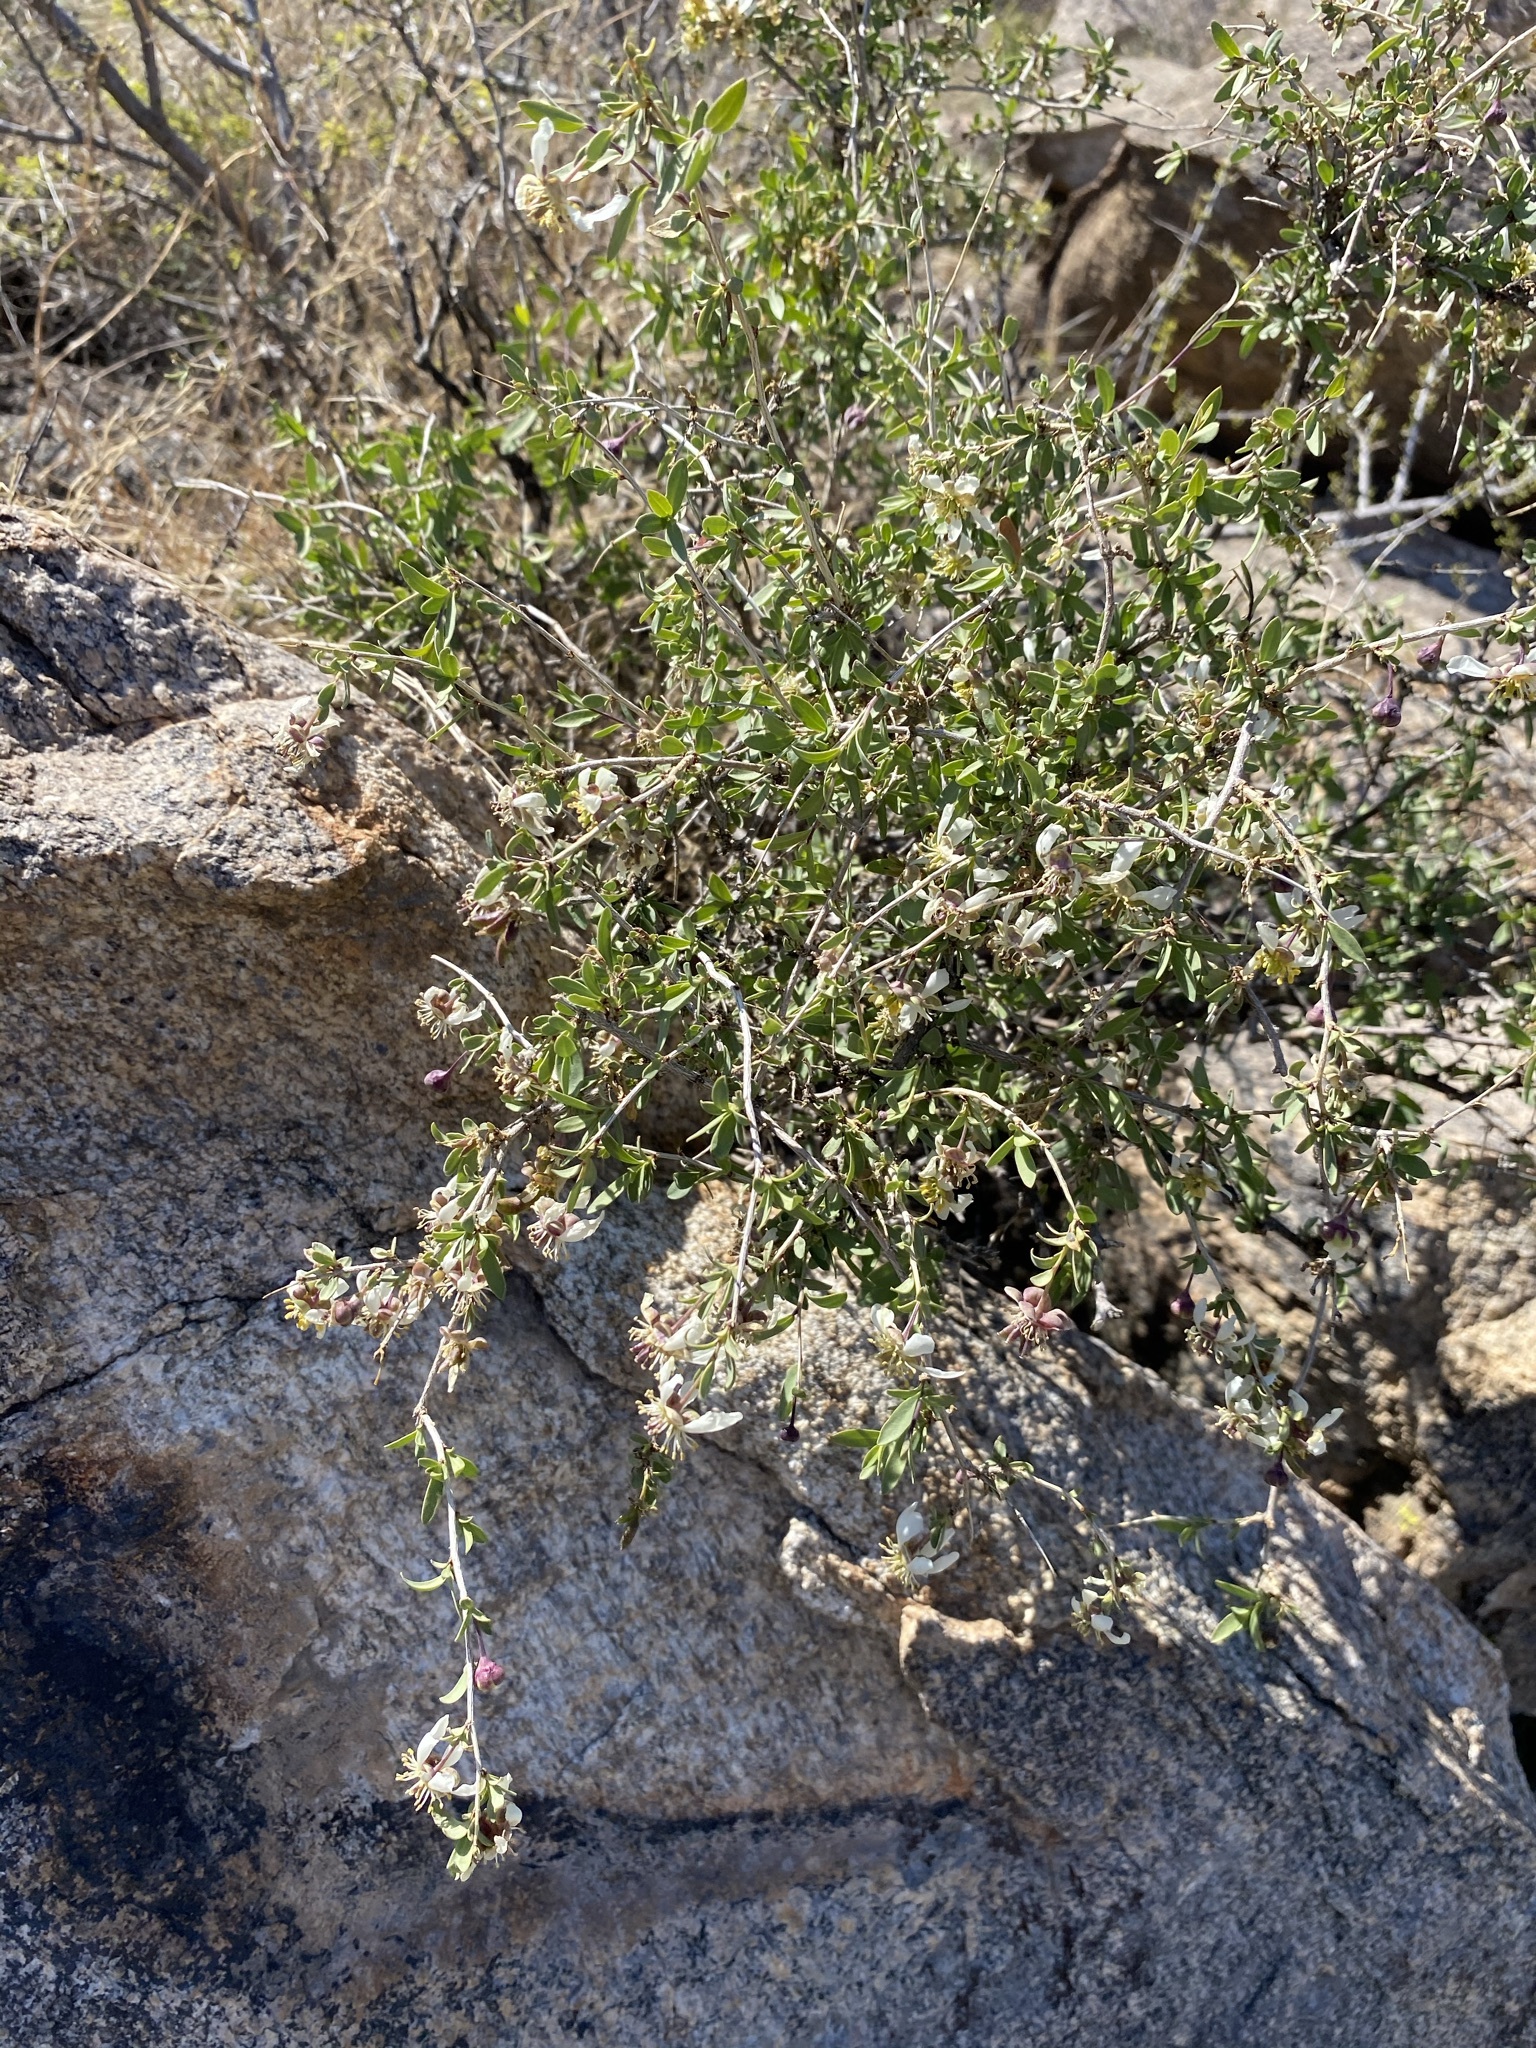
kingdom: Plantae
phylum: Tracheophyta
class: Magnoliopsida
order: Crossosomatales
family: Crossosomataceae
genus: Crossosoma
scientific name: Crossosoma bigelovii
